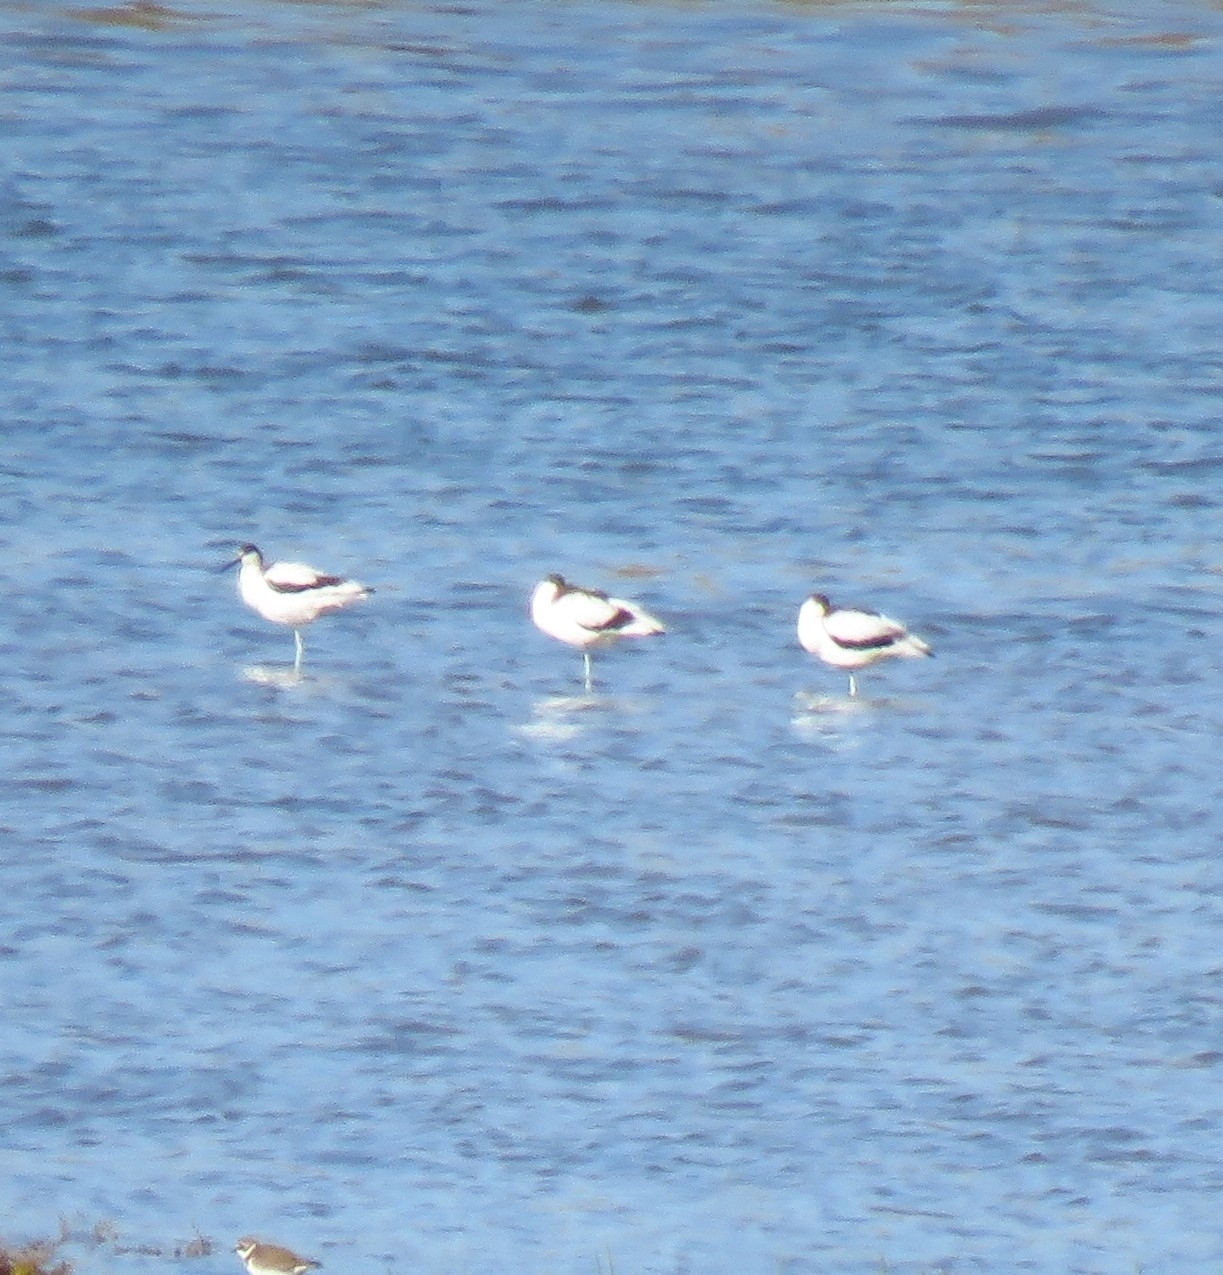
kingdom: Animalia
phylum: Chordata
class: Aves
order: Charadriiformes
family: Recurvirostridae
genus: Recurvirostra
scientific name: Recurvirostra avosetta
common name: Pied avocet
